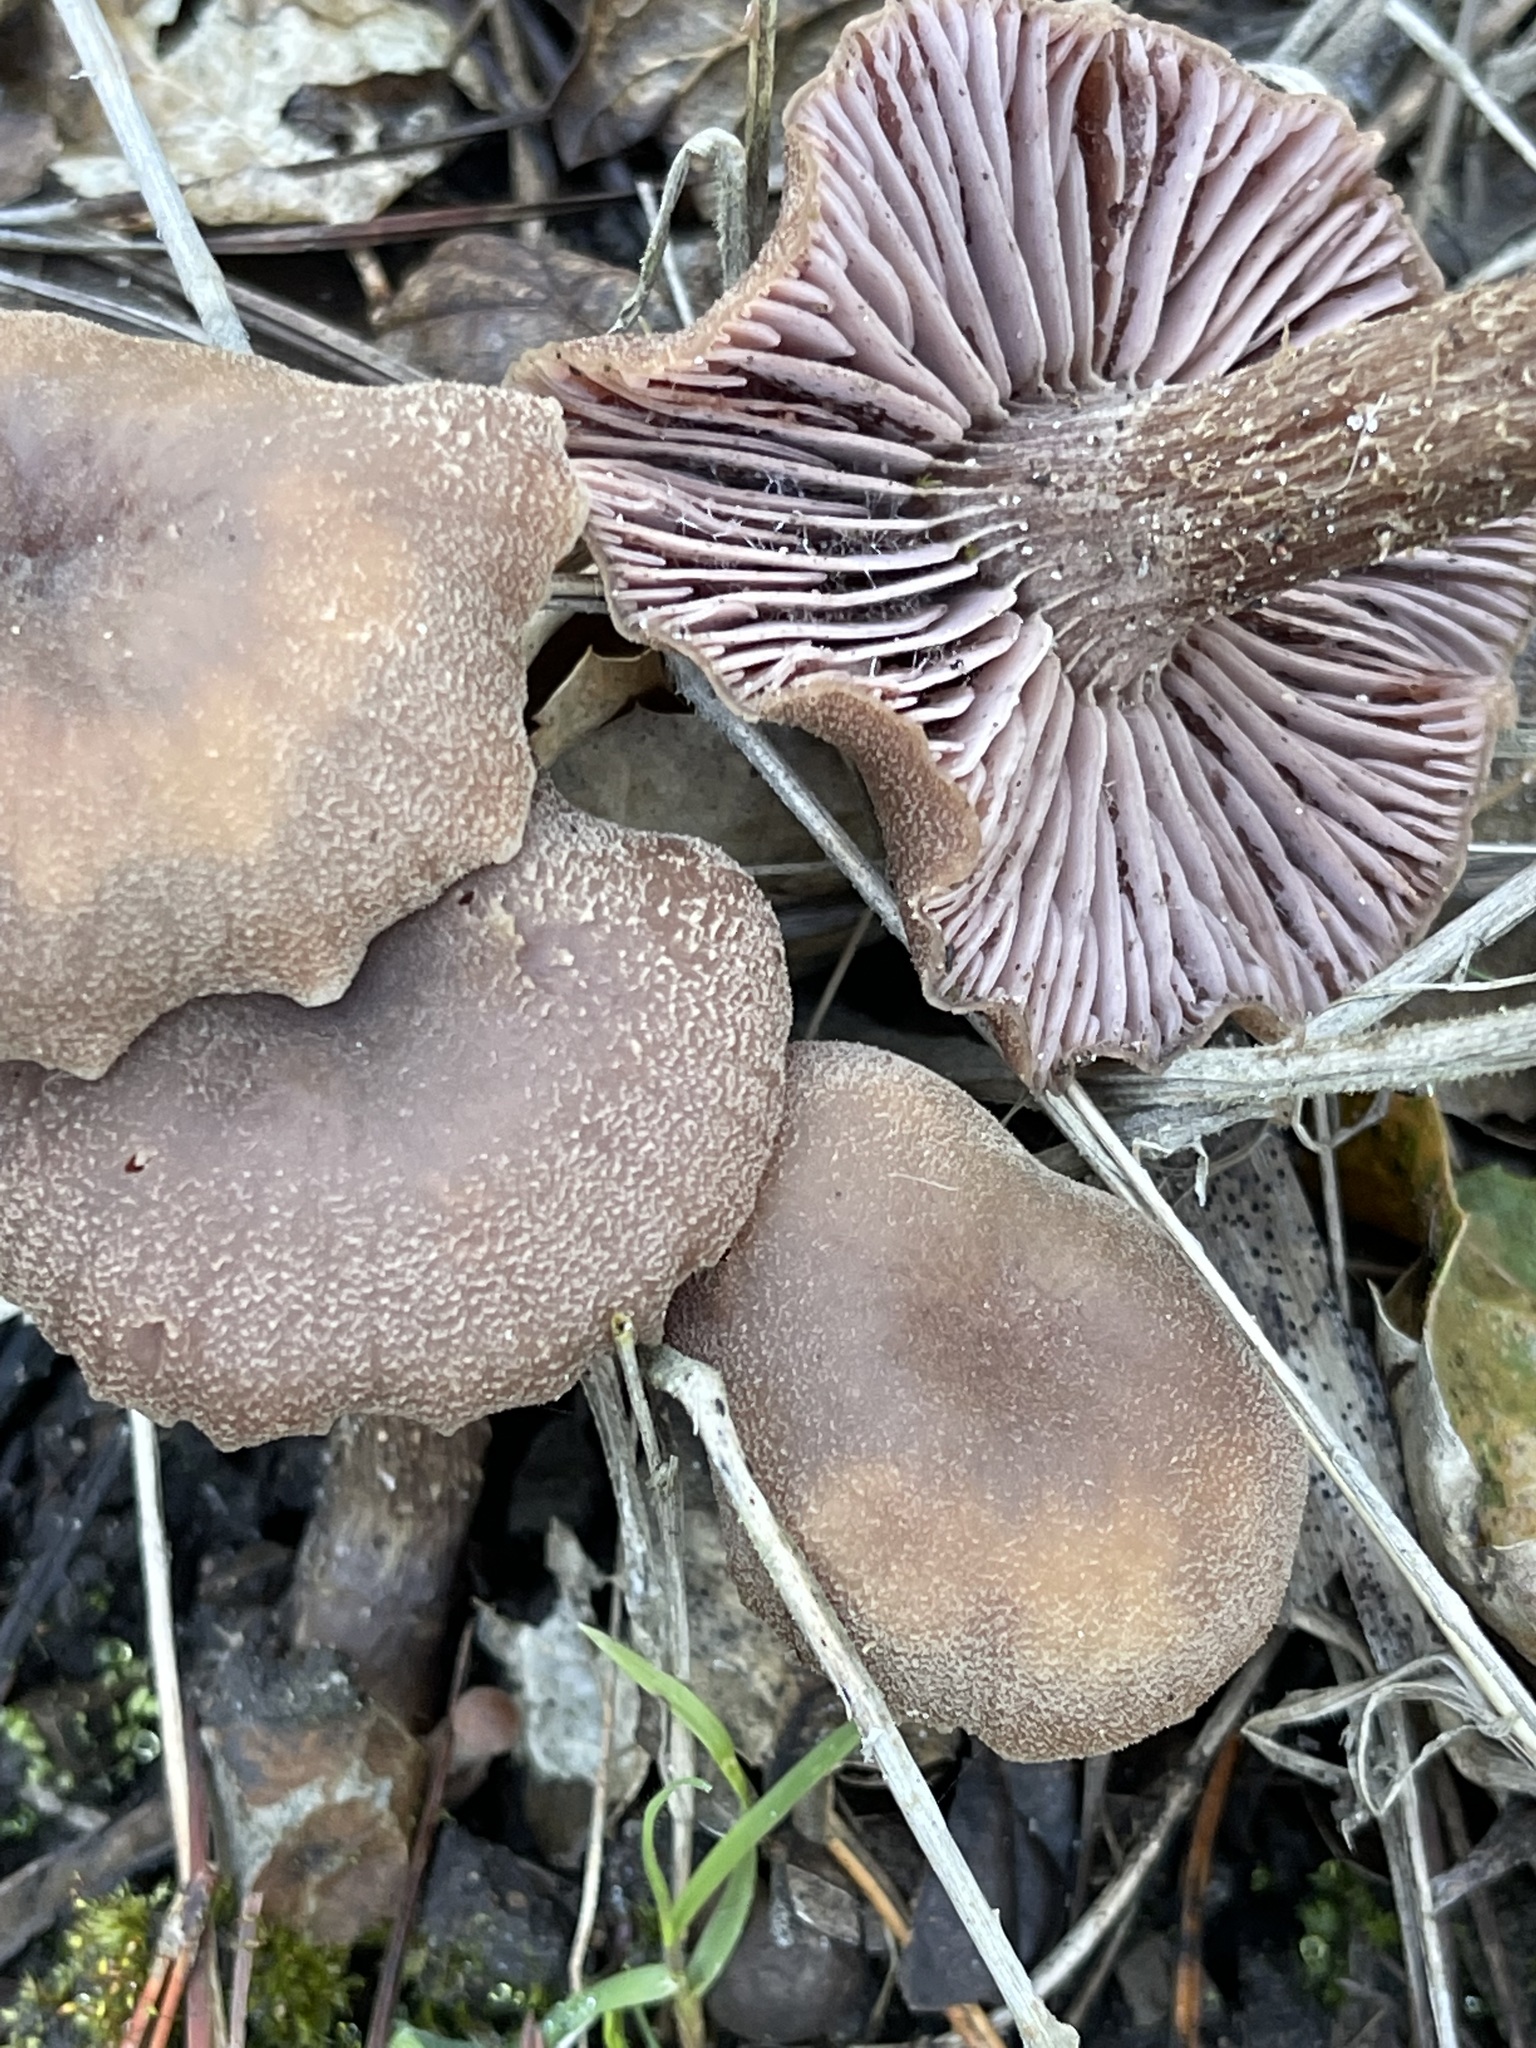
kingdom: Fungi
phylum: Basidiomycota
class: Agaricomycetes
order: Agaricales
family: Hydnangiaceae
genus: Laccaria
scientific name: Laccaria amethysteo-occidentalis
